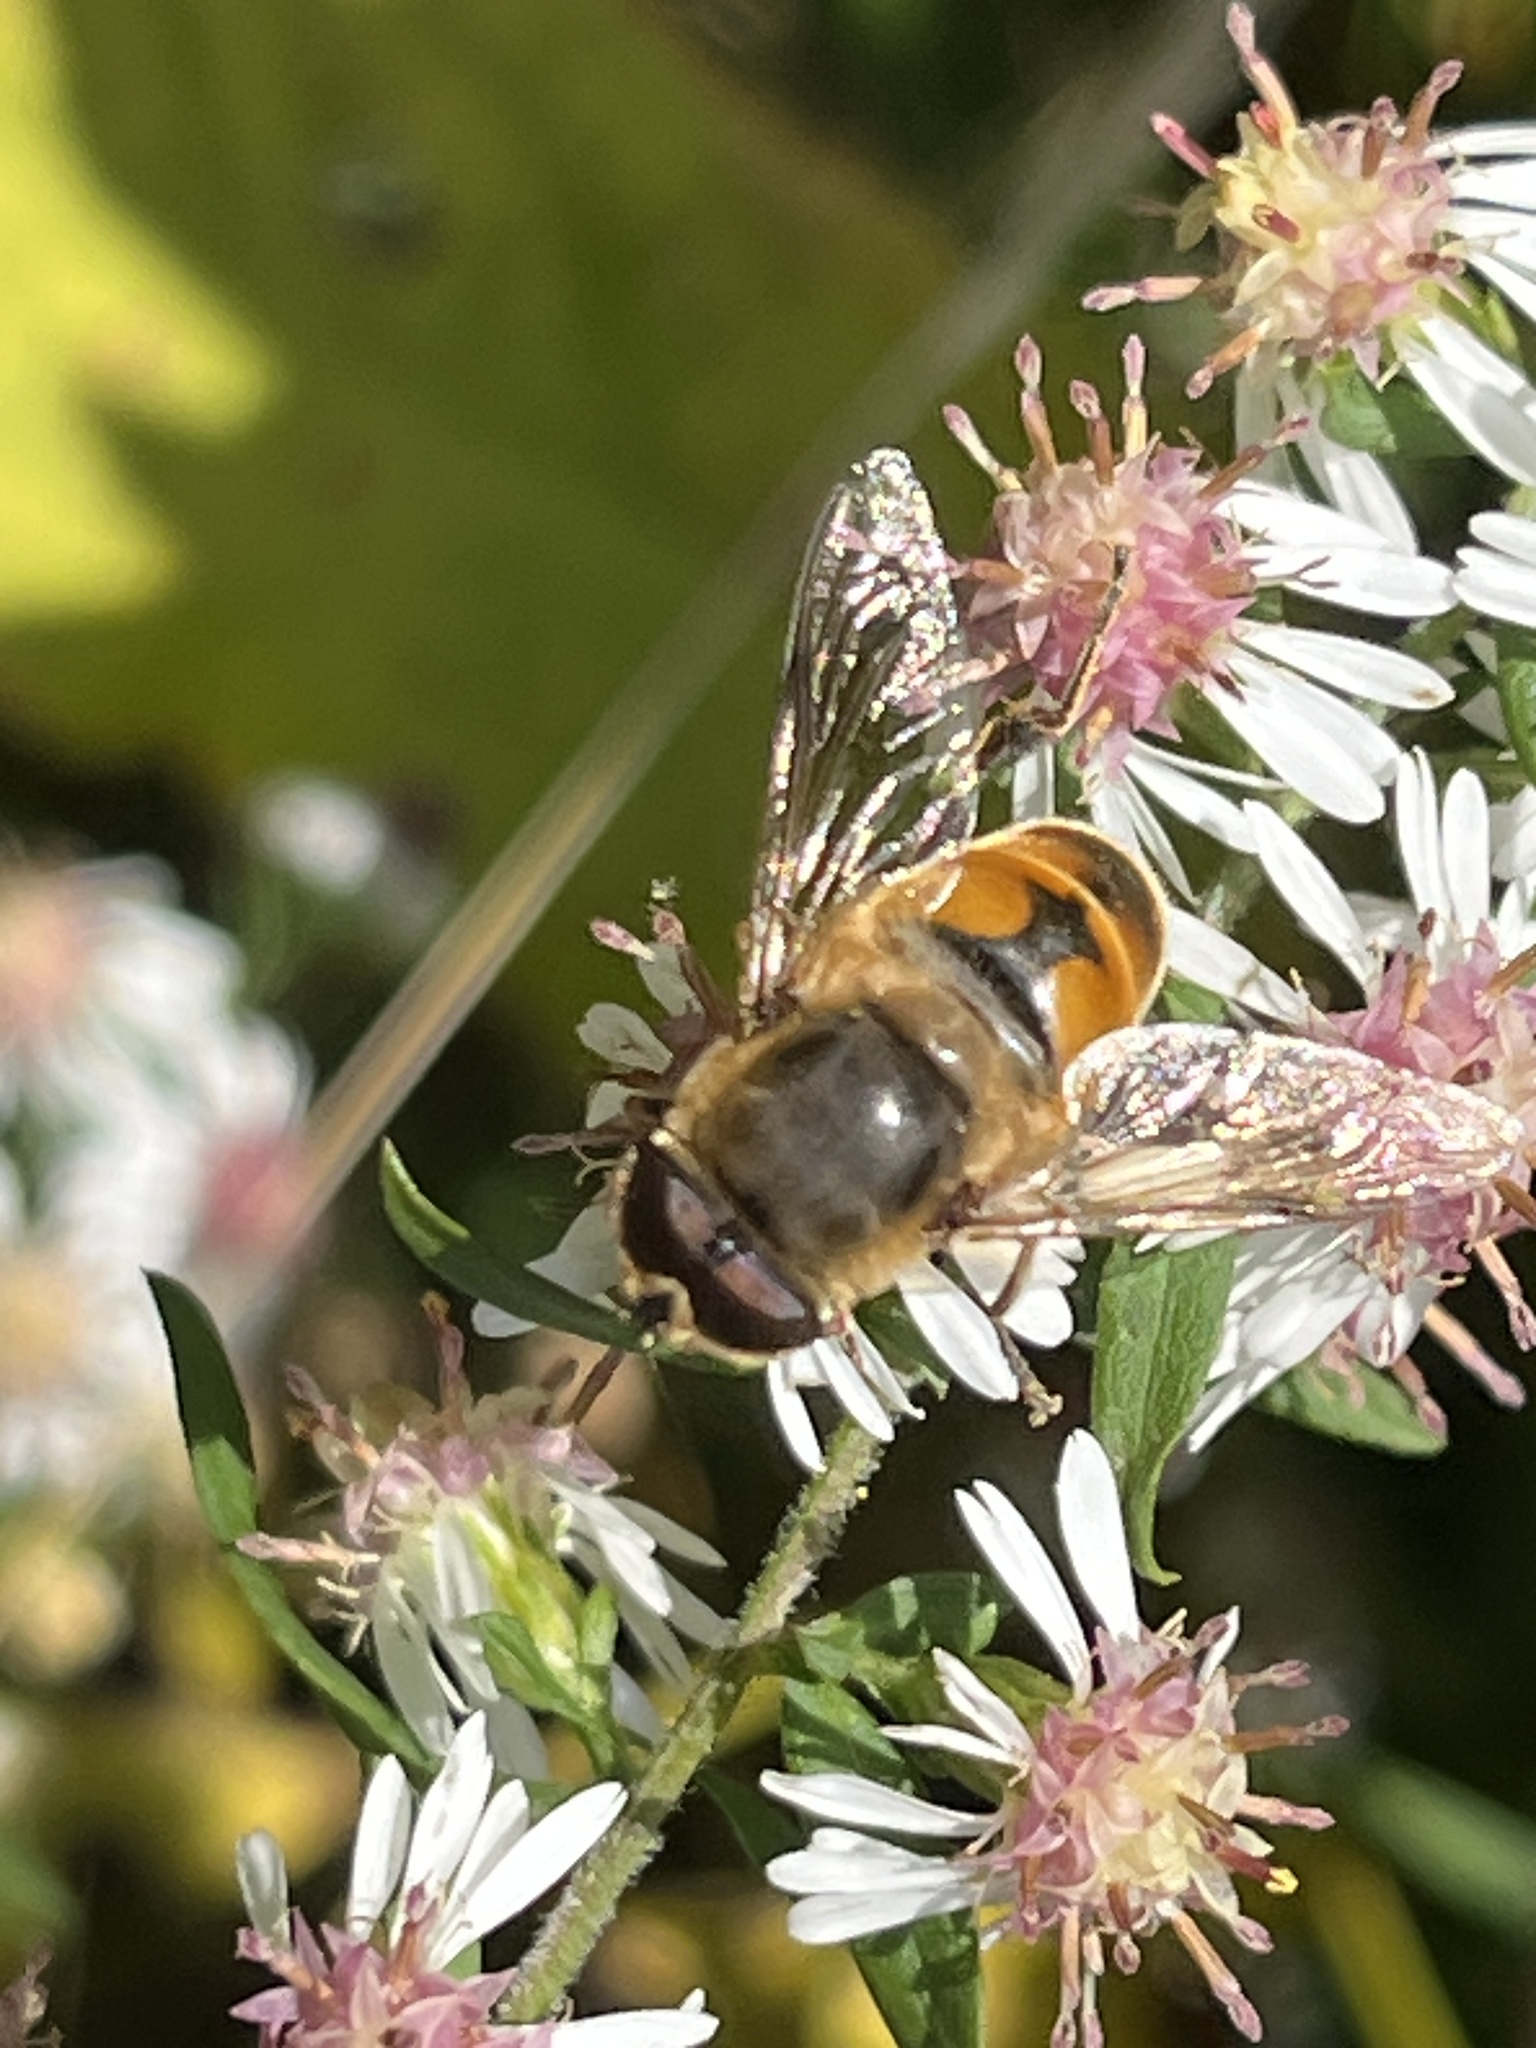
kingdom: Animalia
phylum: Arthropoda
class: Insecta
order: Diptera
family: Syrphidae
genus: Eristalis
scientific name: Eristalis tenax
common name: Drone fly
